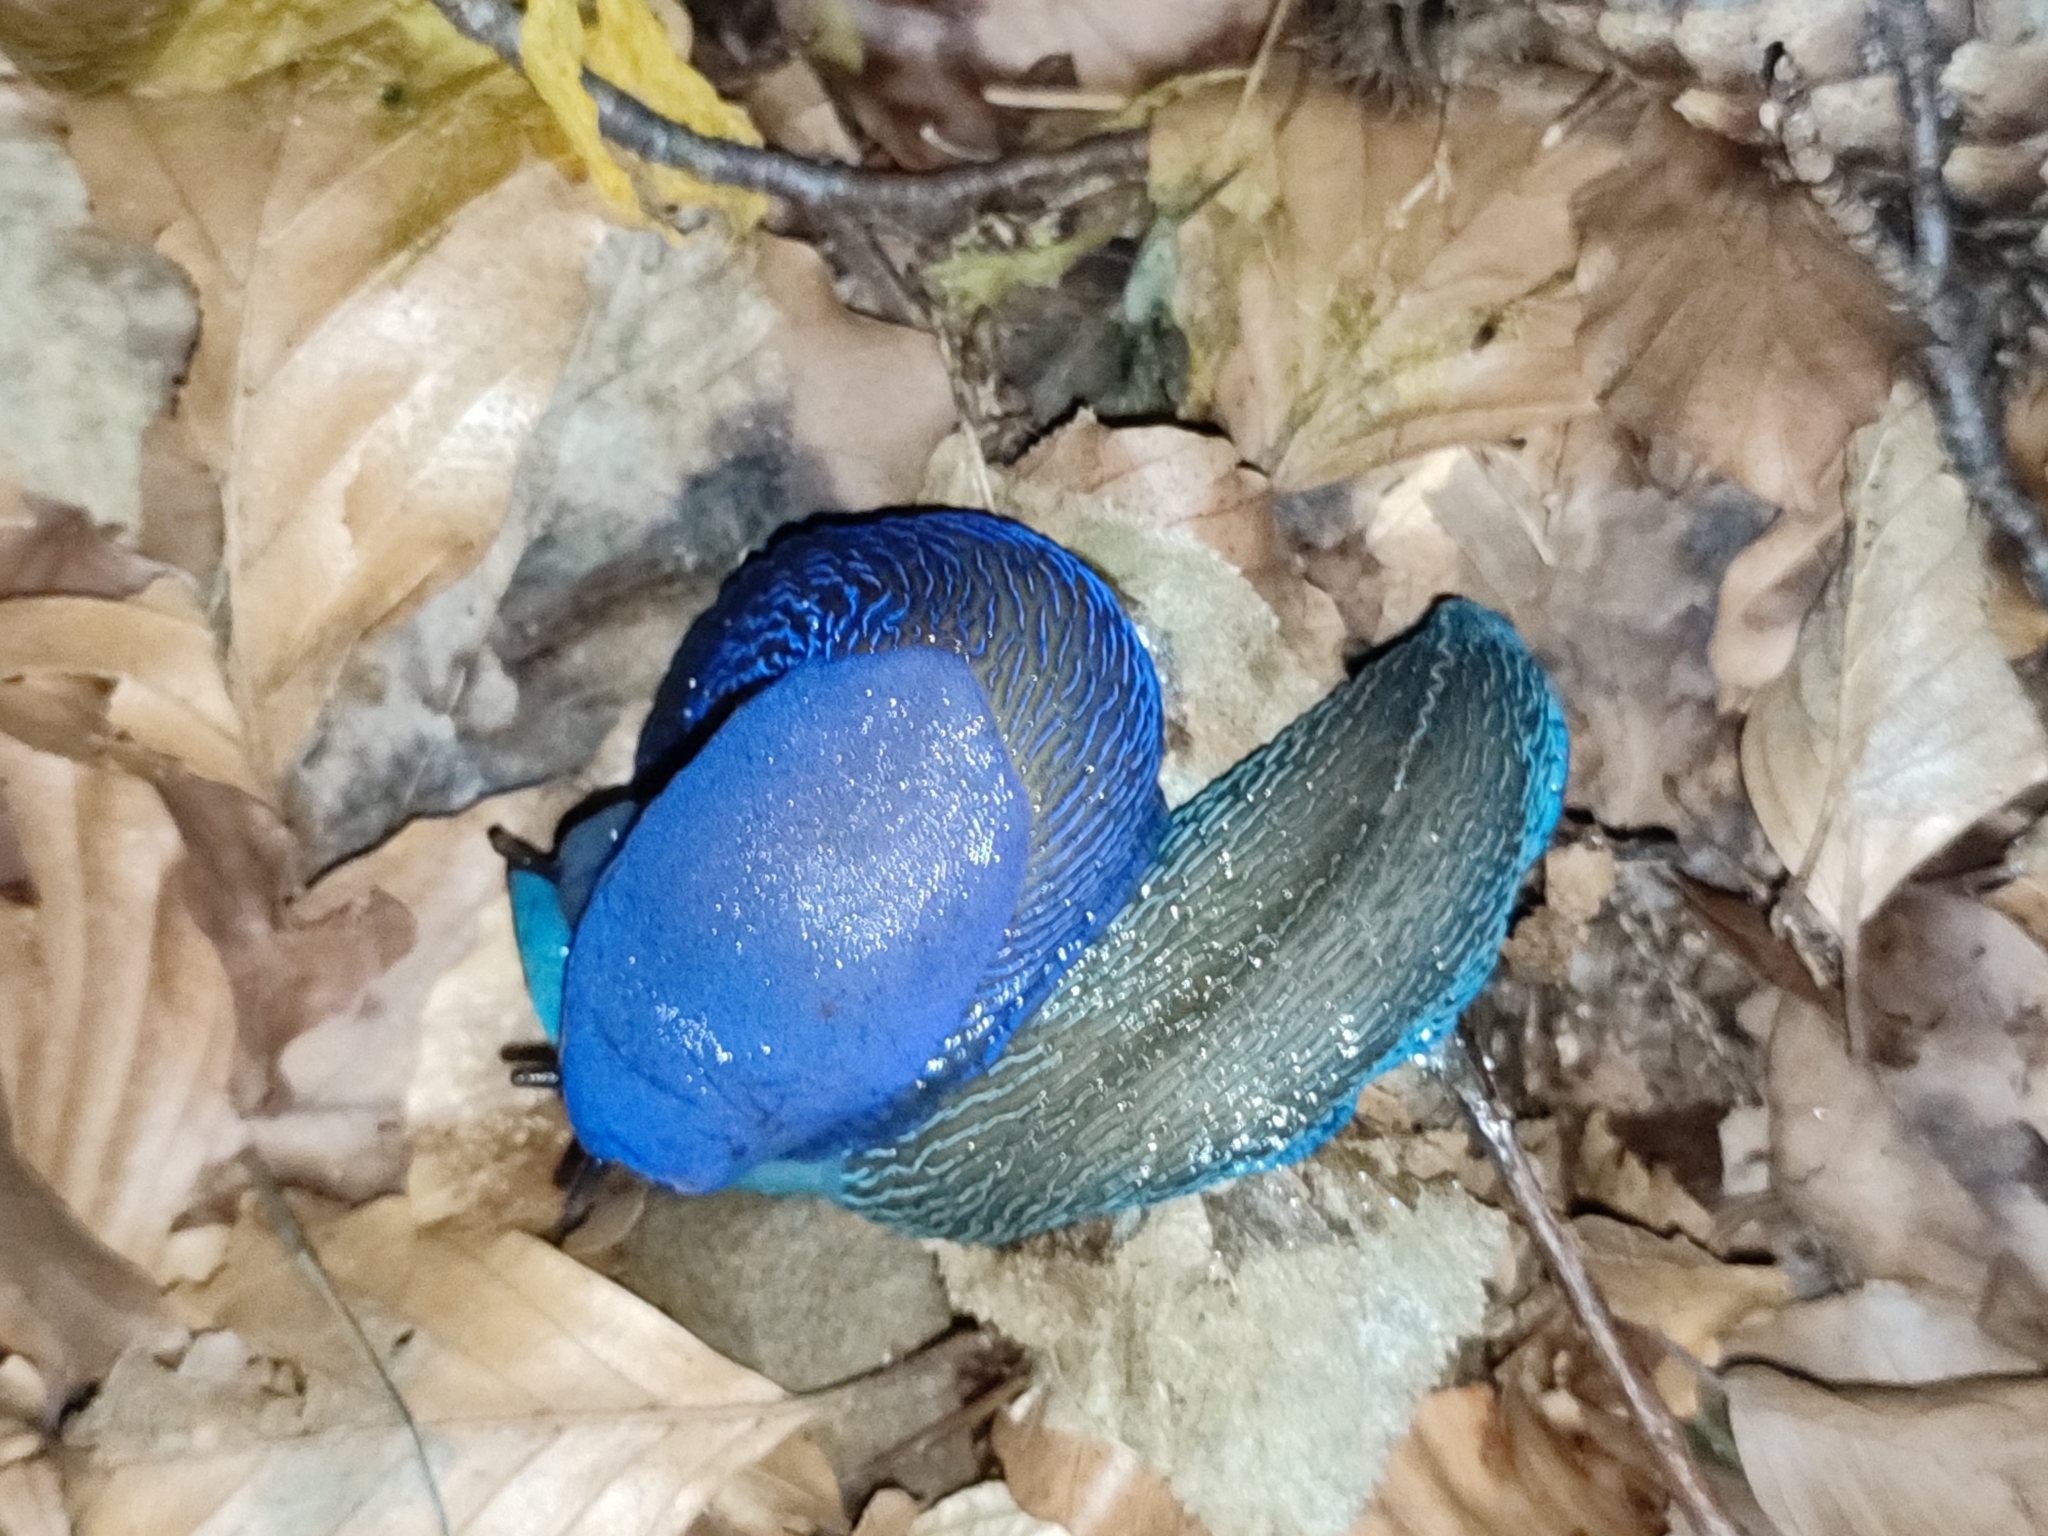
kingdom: Animalia
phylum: Mollusca
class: Gastropoda
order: Stylommatophora
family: Limacidae
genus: Bielzia
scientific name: Bielzia coerulans
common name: Carpathian blue slug
